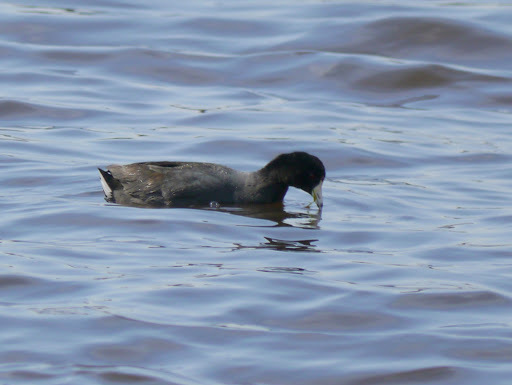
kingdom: Animalia
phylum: Chordata
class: Aves
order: Gruiformes
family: Rallidae
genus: Fulica
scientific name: Fulica americana
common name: American coot
